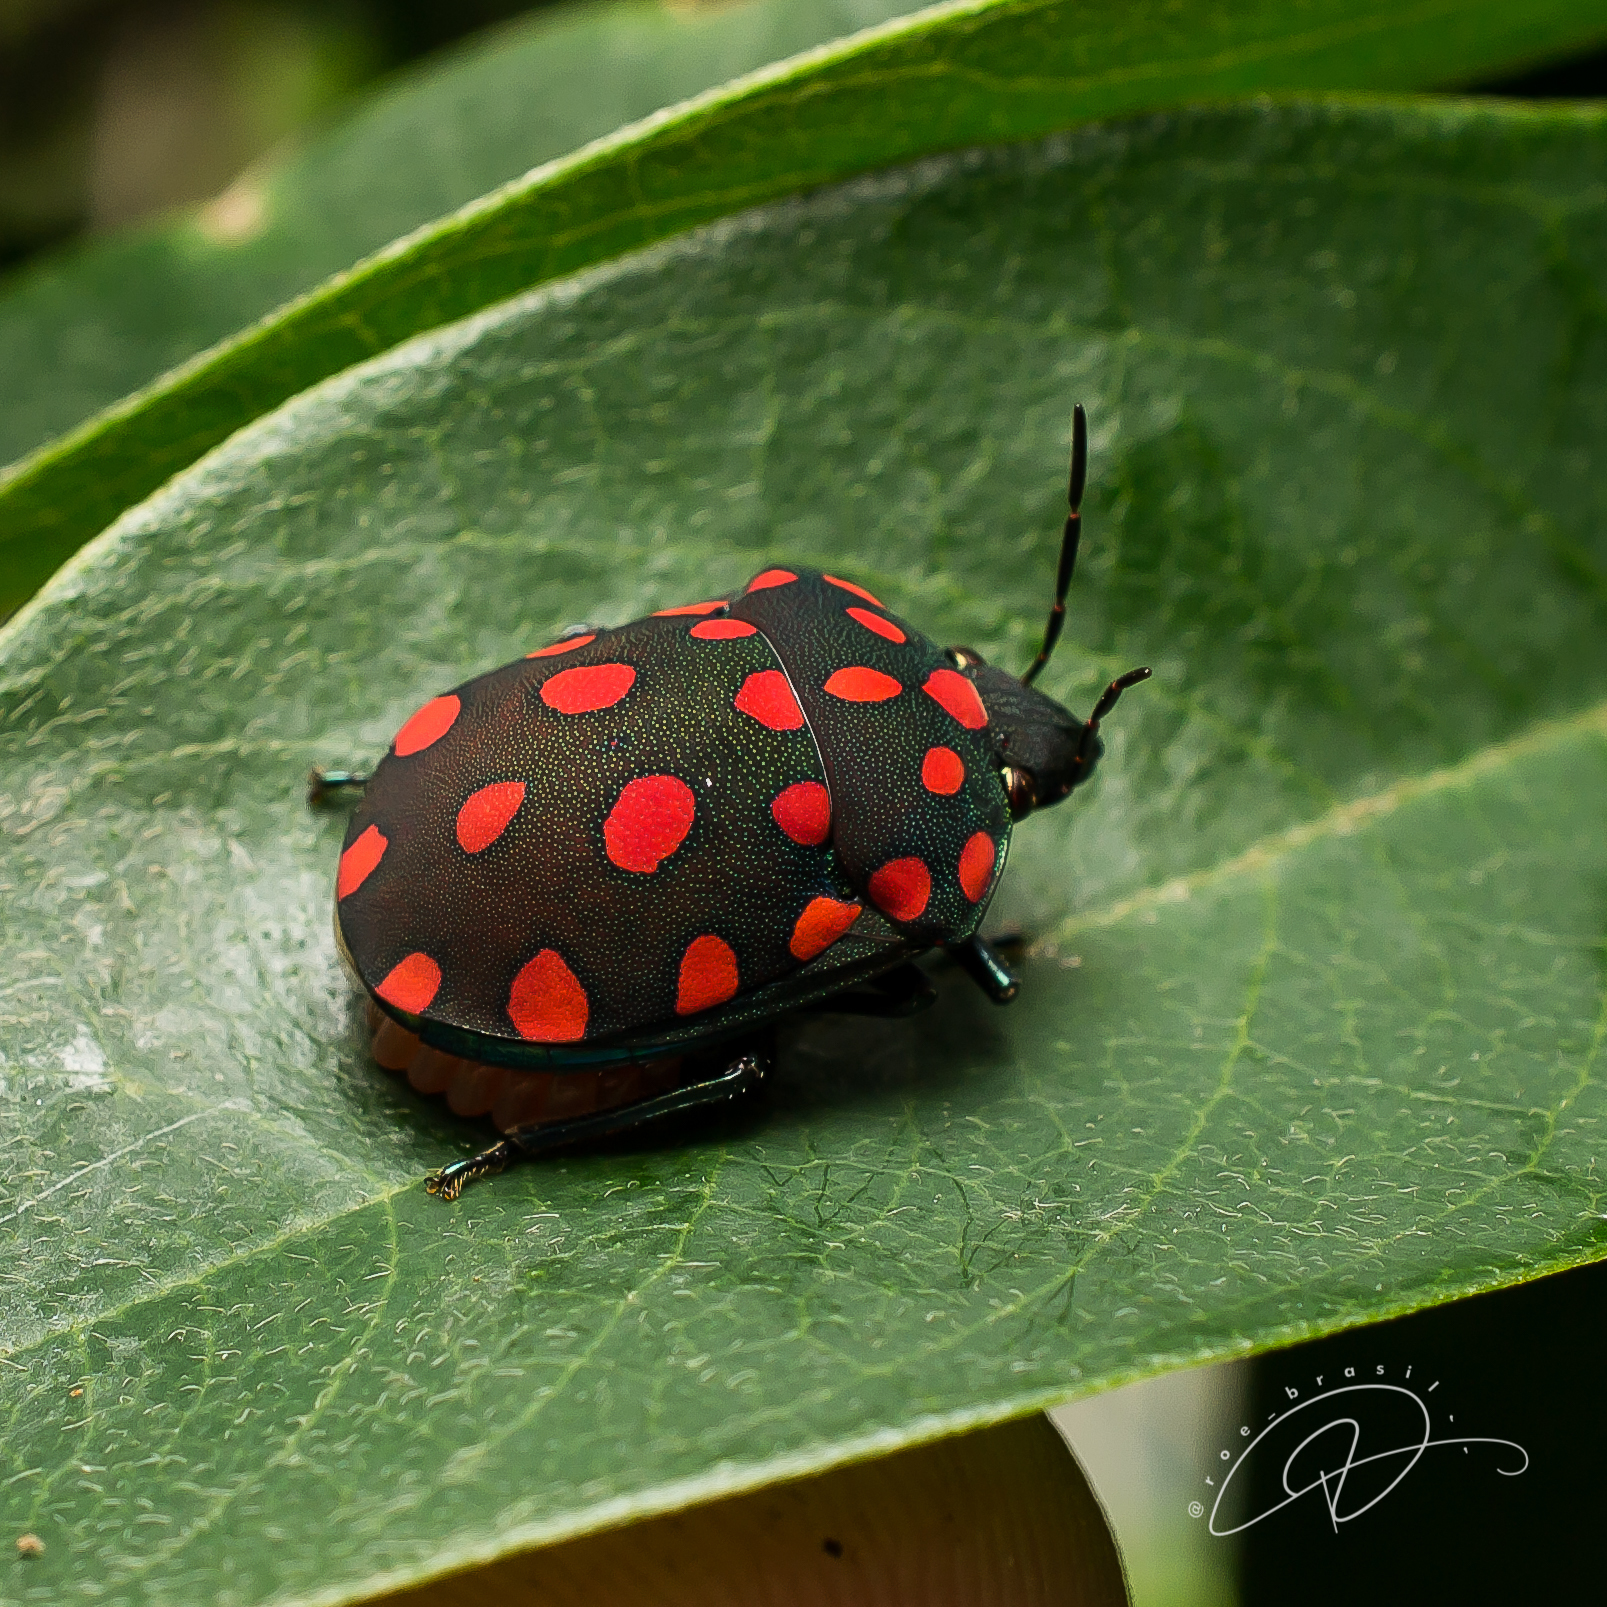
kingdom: Animalia
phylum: Arthropoda
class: Insecta
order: Hemiptera
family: Scutelleridae
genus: Pachycoris
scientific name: Pachycoris torridus
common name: Torrid jewel bug
